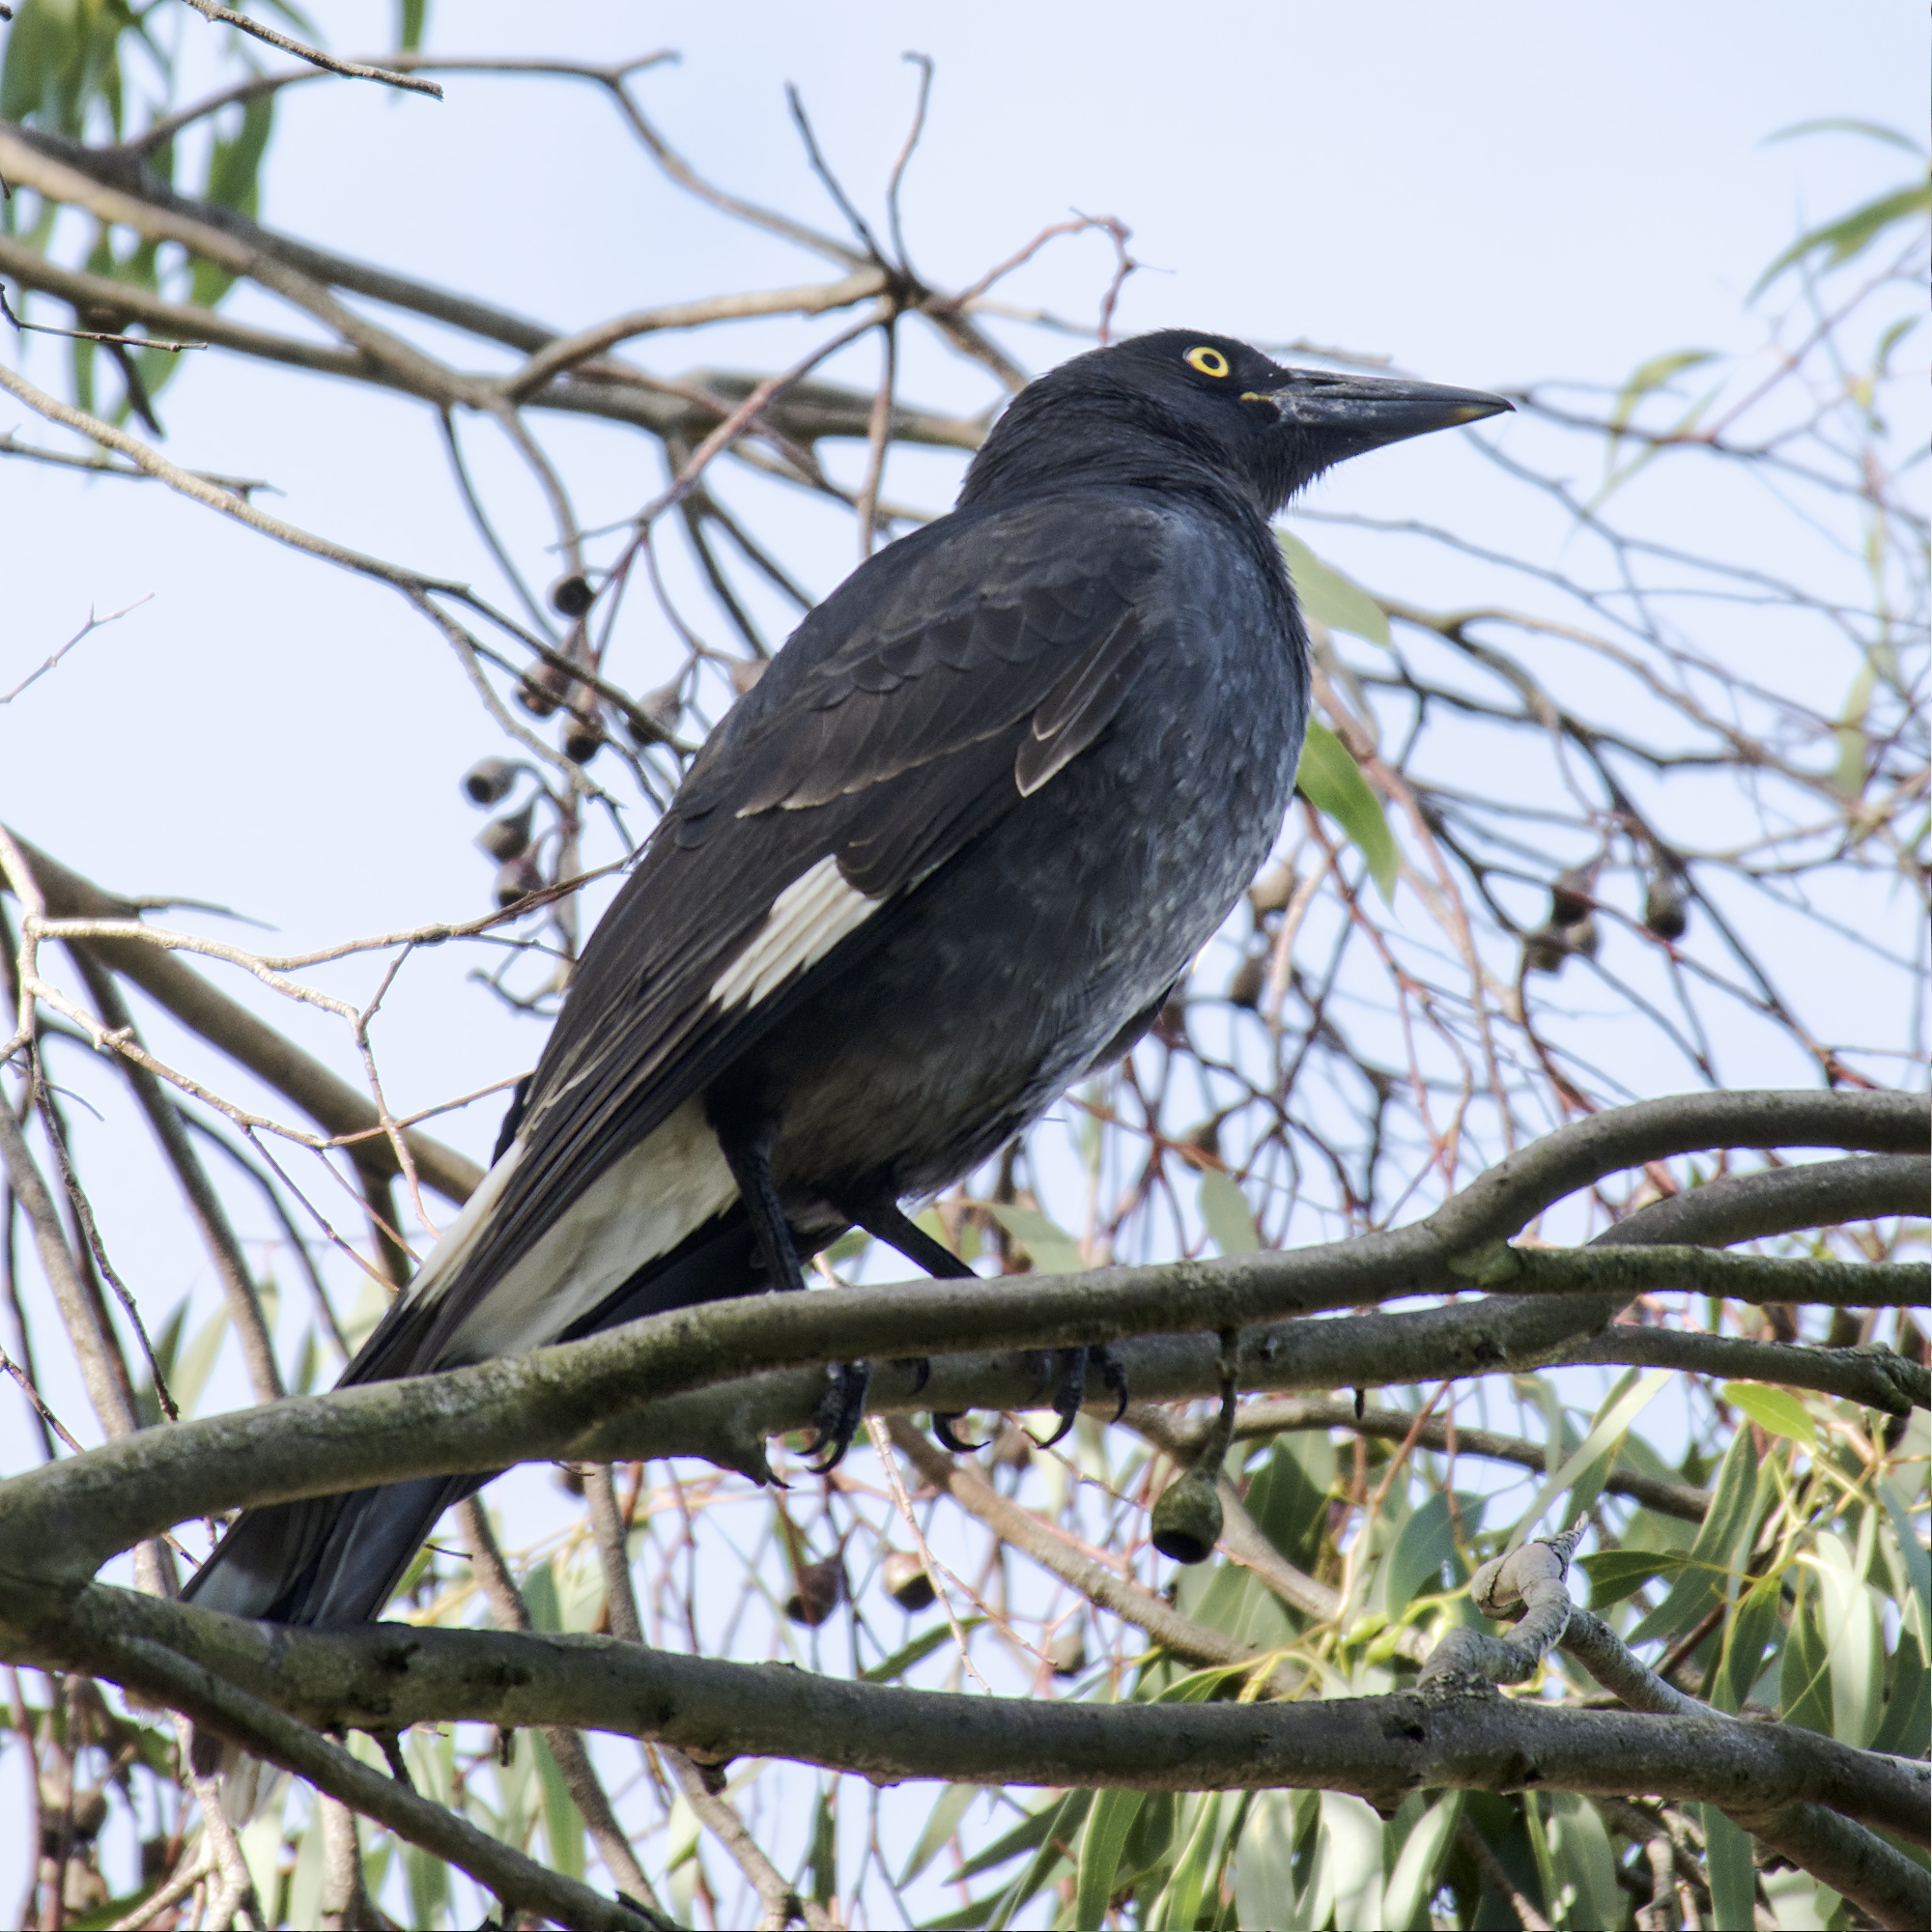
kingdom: Animalia
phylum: Chordata
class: Aves
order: Passeriformes
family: Cracticidae
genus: Strepera
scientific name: Strepera graculina
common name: Pied currawong
